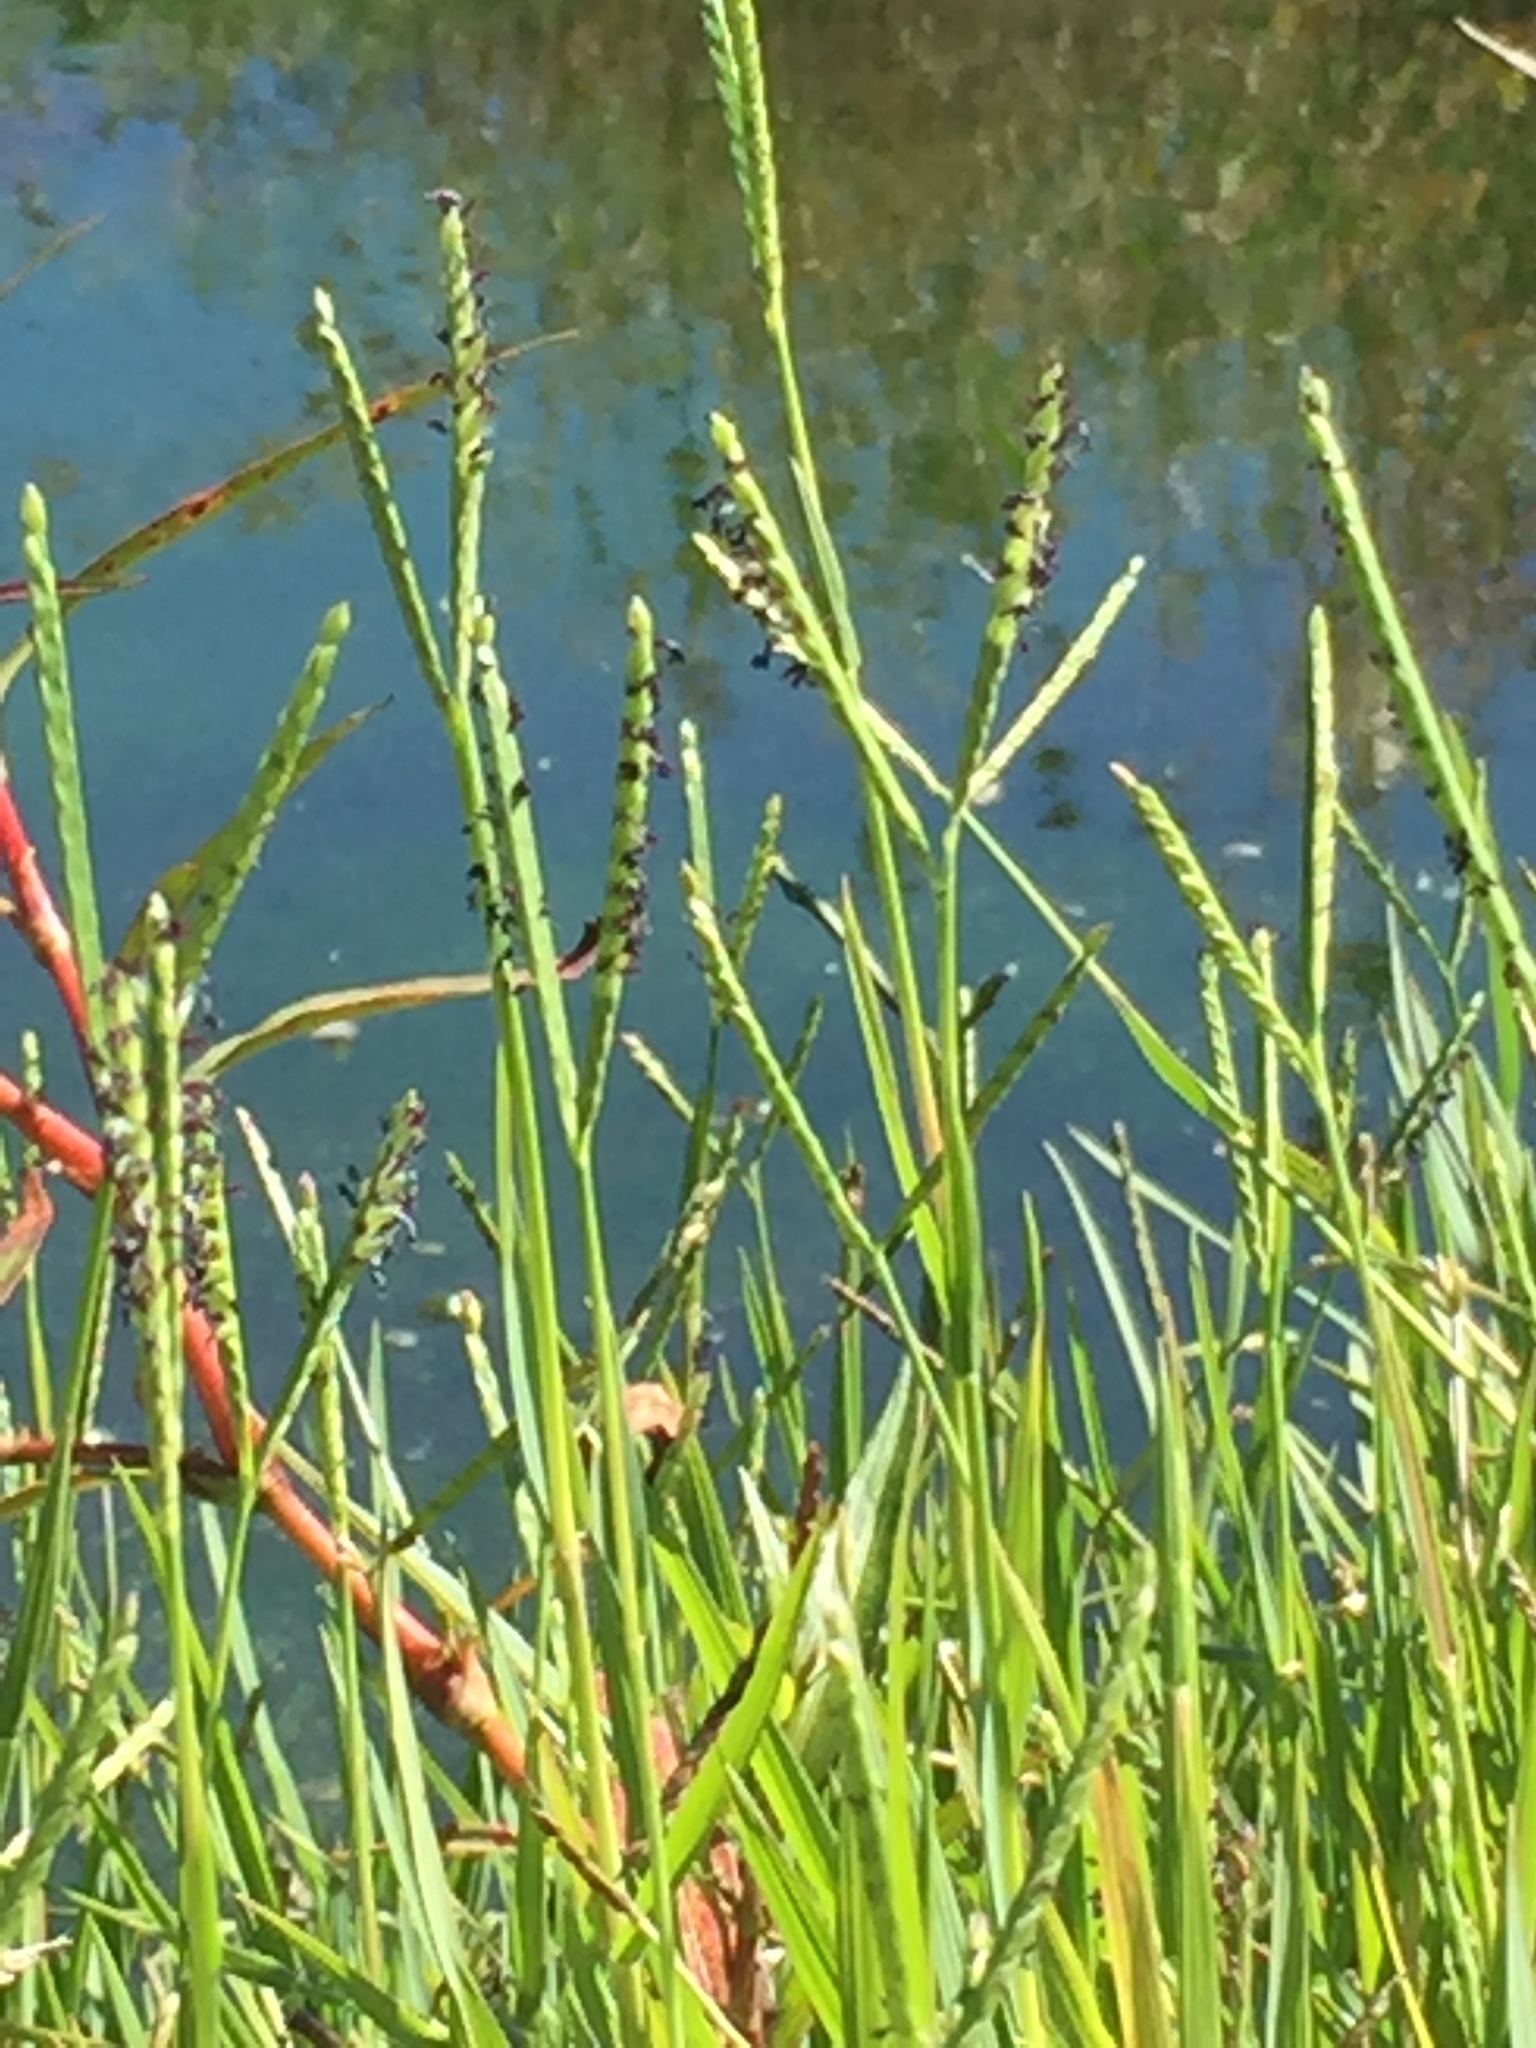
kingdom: Plantae
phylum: Tracheophyta
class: Liliopsida
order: Poales
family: Poaceae
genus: Paspalum
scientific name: Paspalum distichum
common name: Knotgrass
